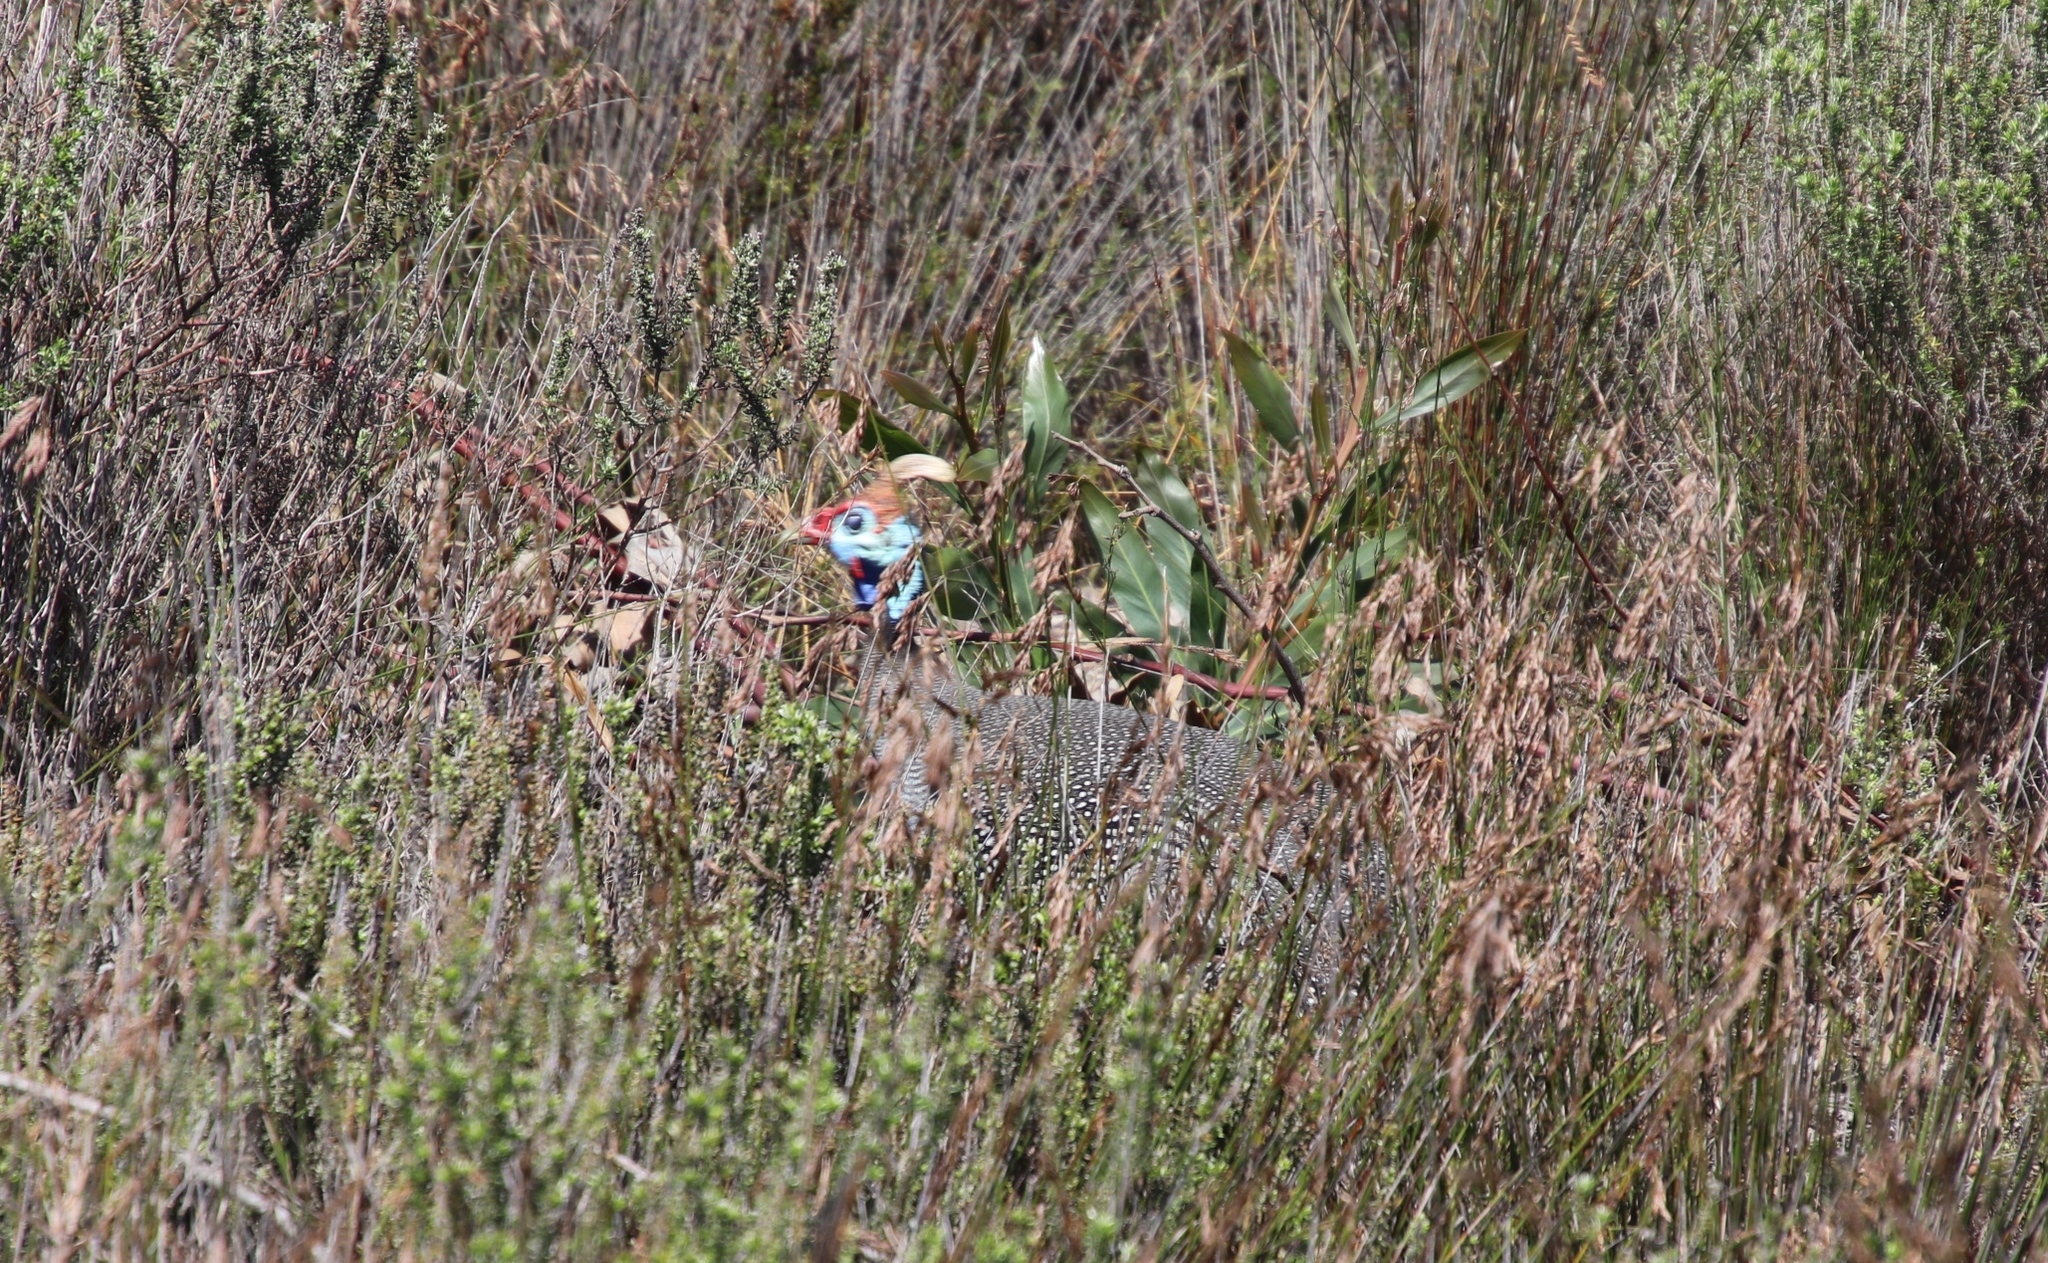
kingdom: Animalia
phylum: Chordata
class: Aves
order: Galliformes
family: Numididae
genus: Numida
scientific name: Numida meleagris
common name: Helmeted guineafowl
